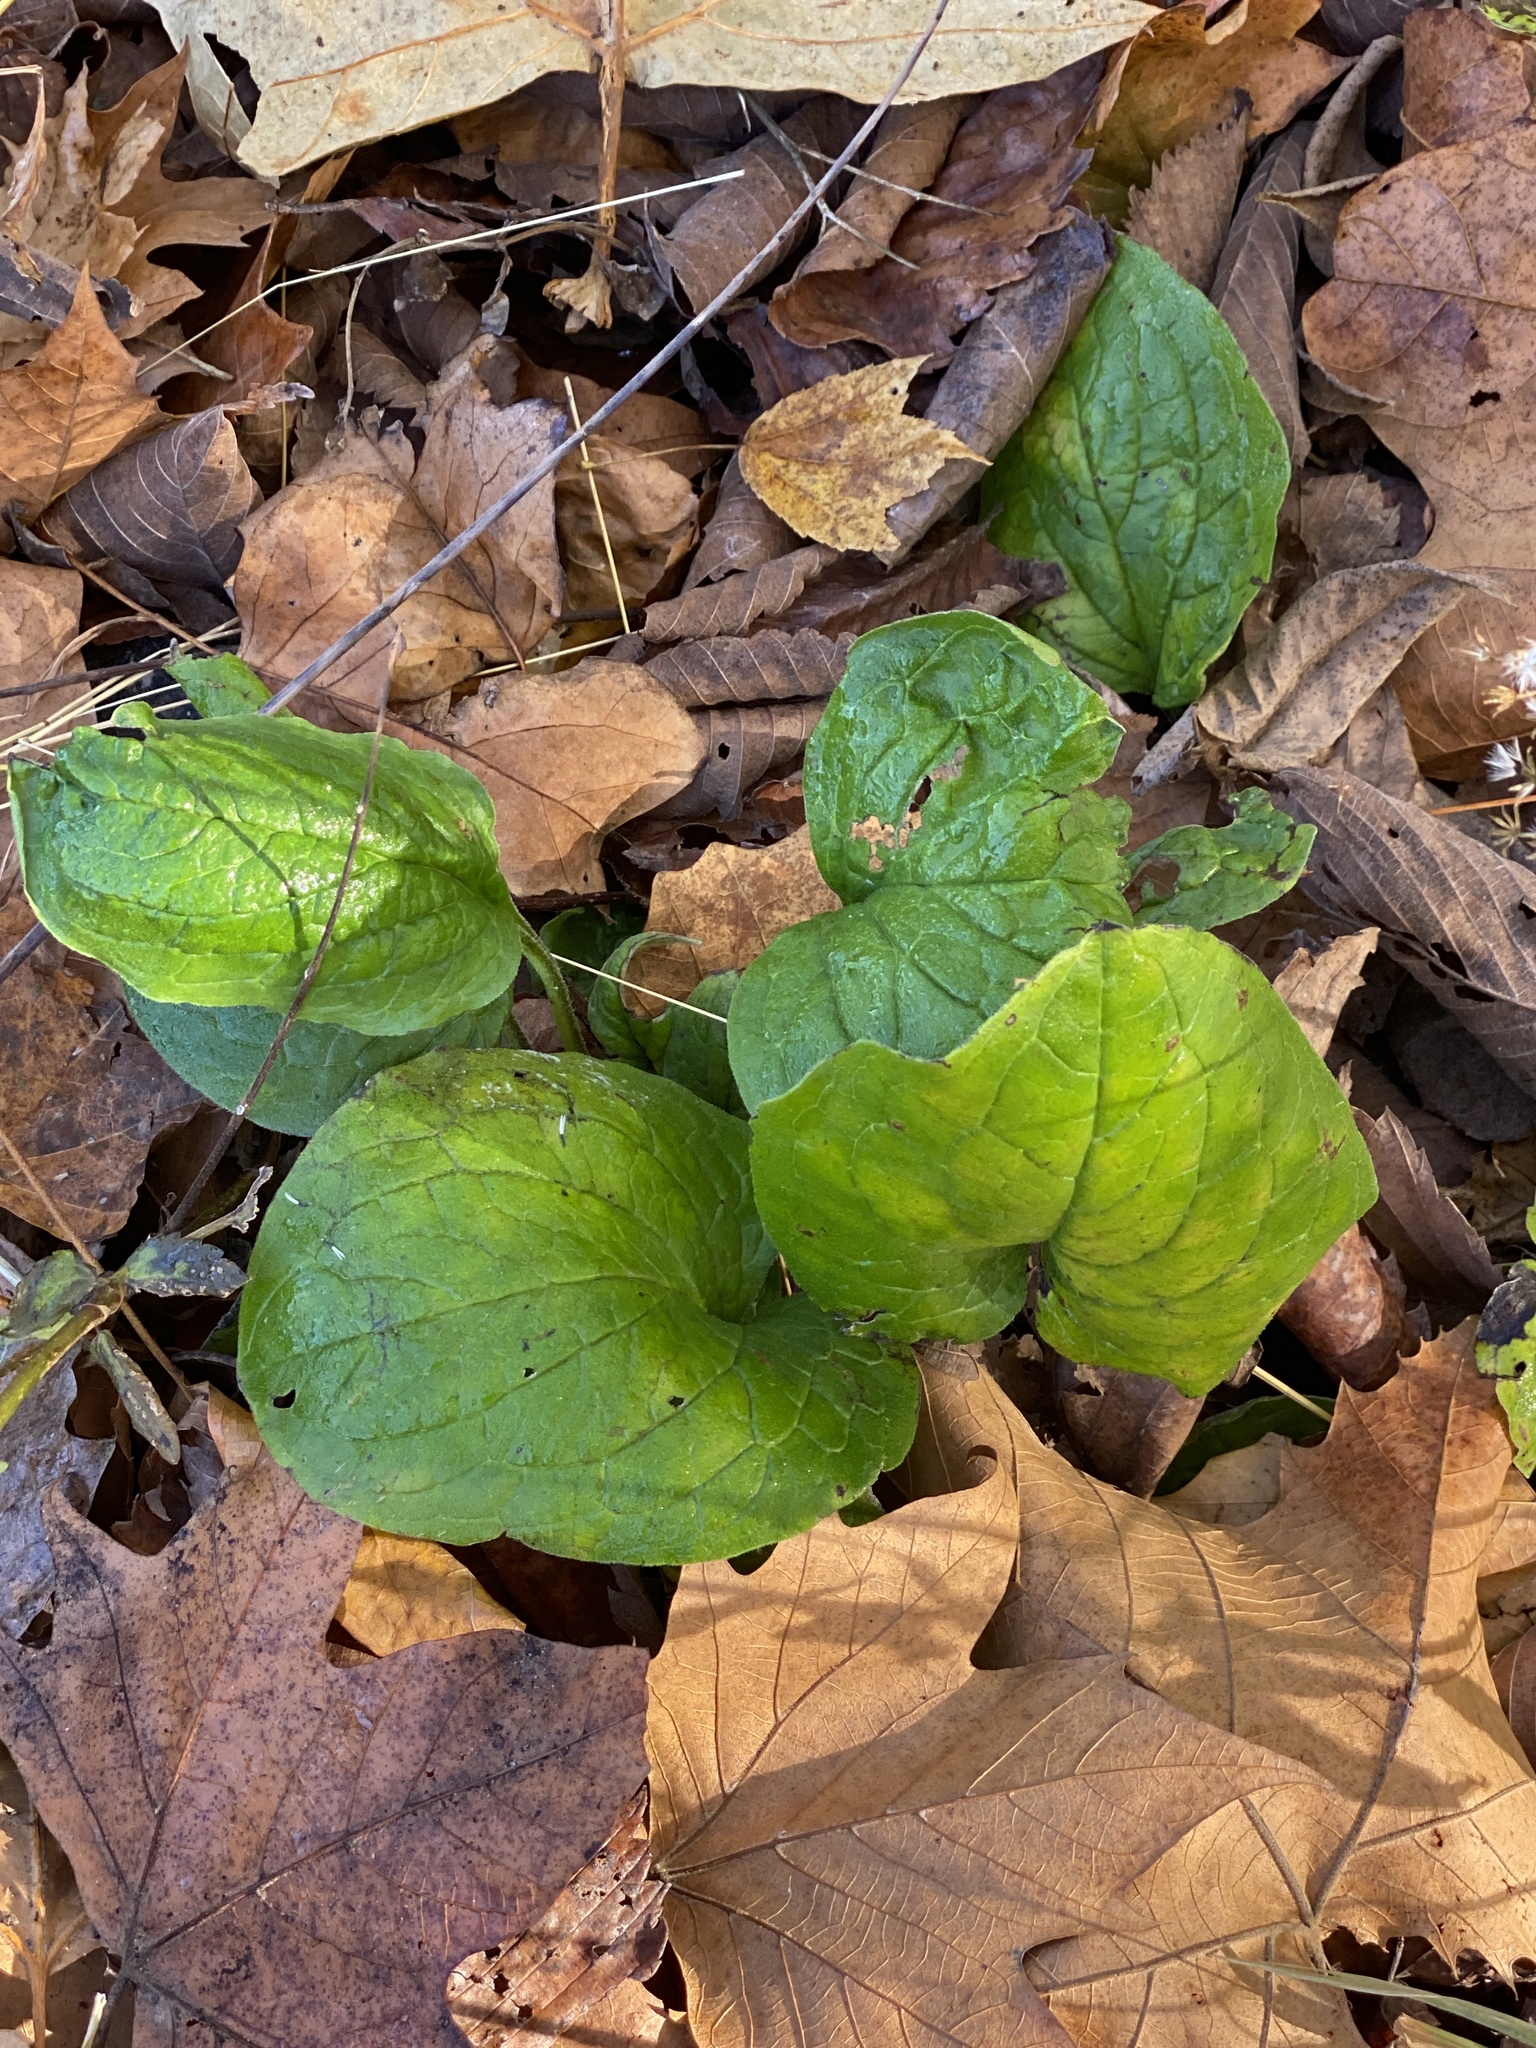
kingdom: Plantae
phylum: Tracheophyta
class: Magnoliopsida
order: Boraginales
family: Boraginaceae
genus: Hackelia
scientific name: Hackelia virginiana
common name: Beggar's-lice
